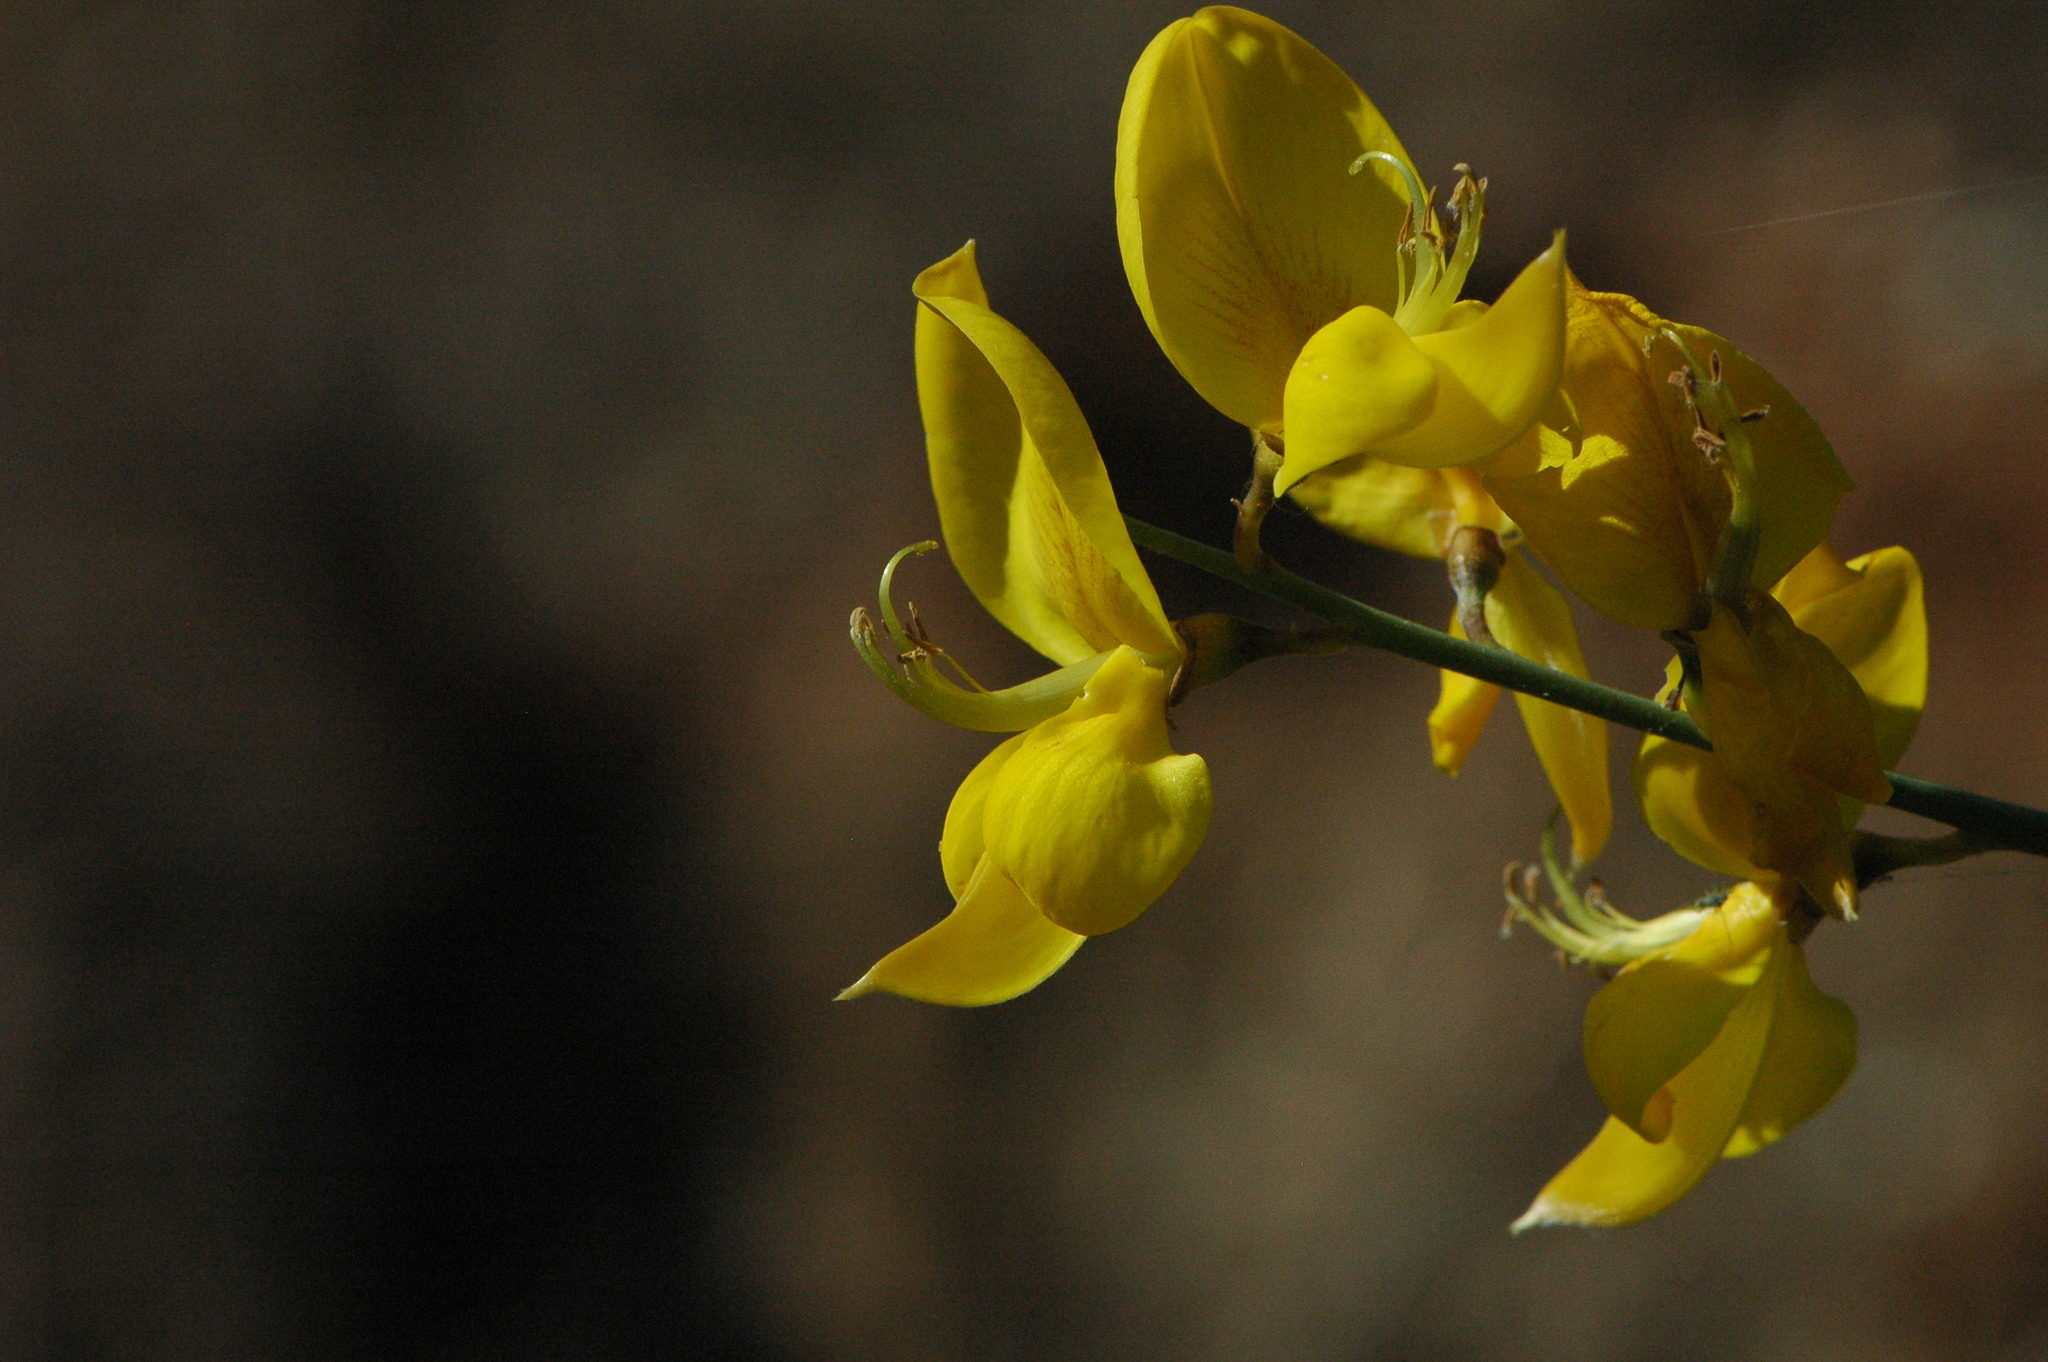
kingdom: Plantae
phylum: Tracheophyta
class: Magnoliopsida
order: Fabales
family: Fabaceae
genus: Spartium
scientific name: Spartium junceum
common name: Spanish broom
